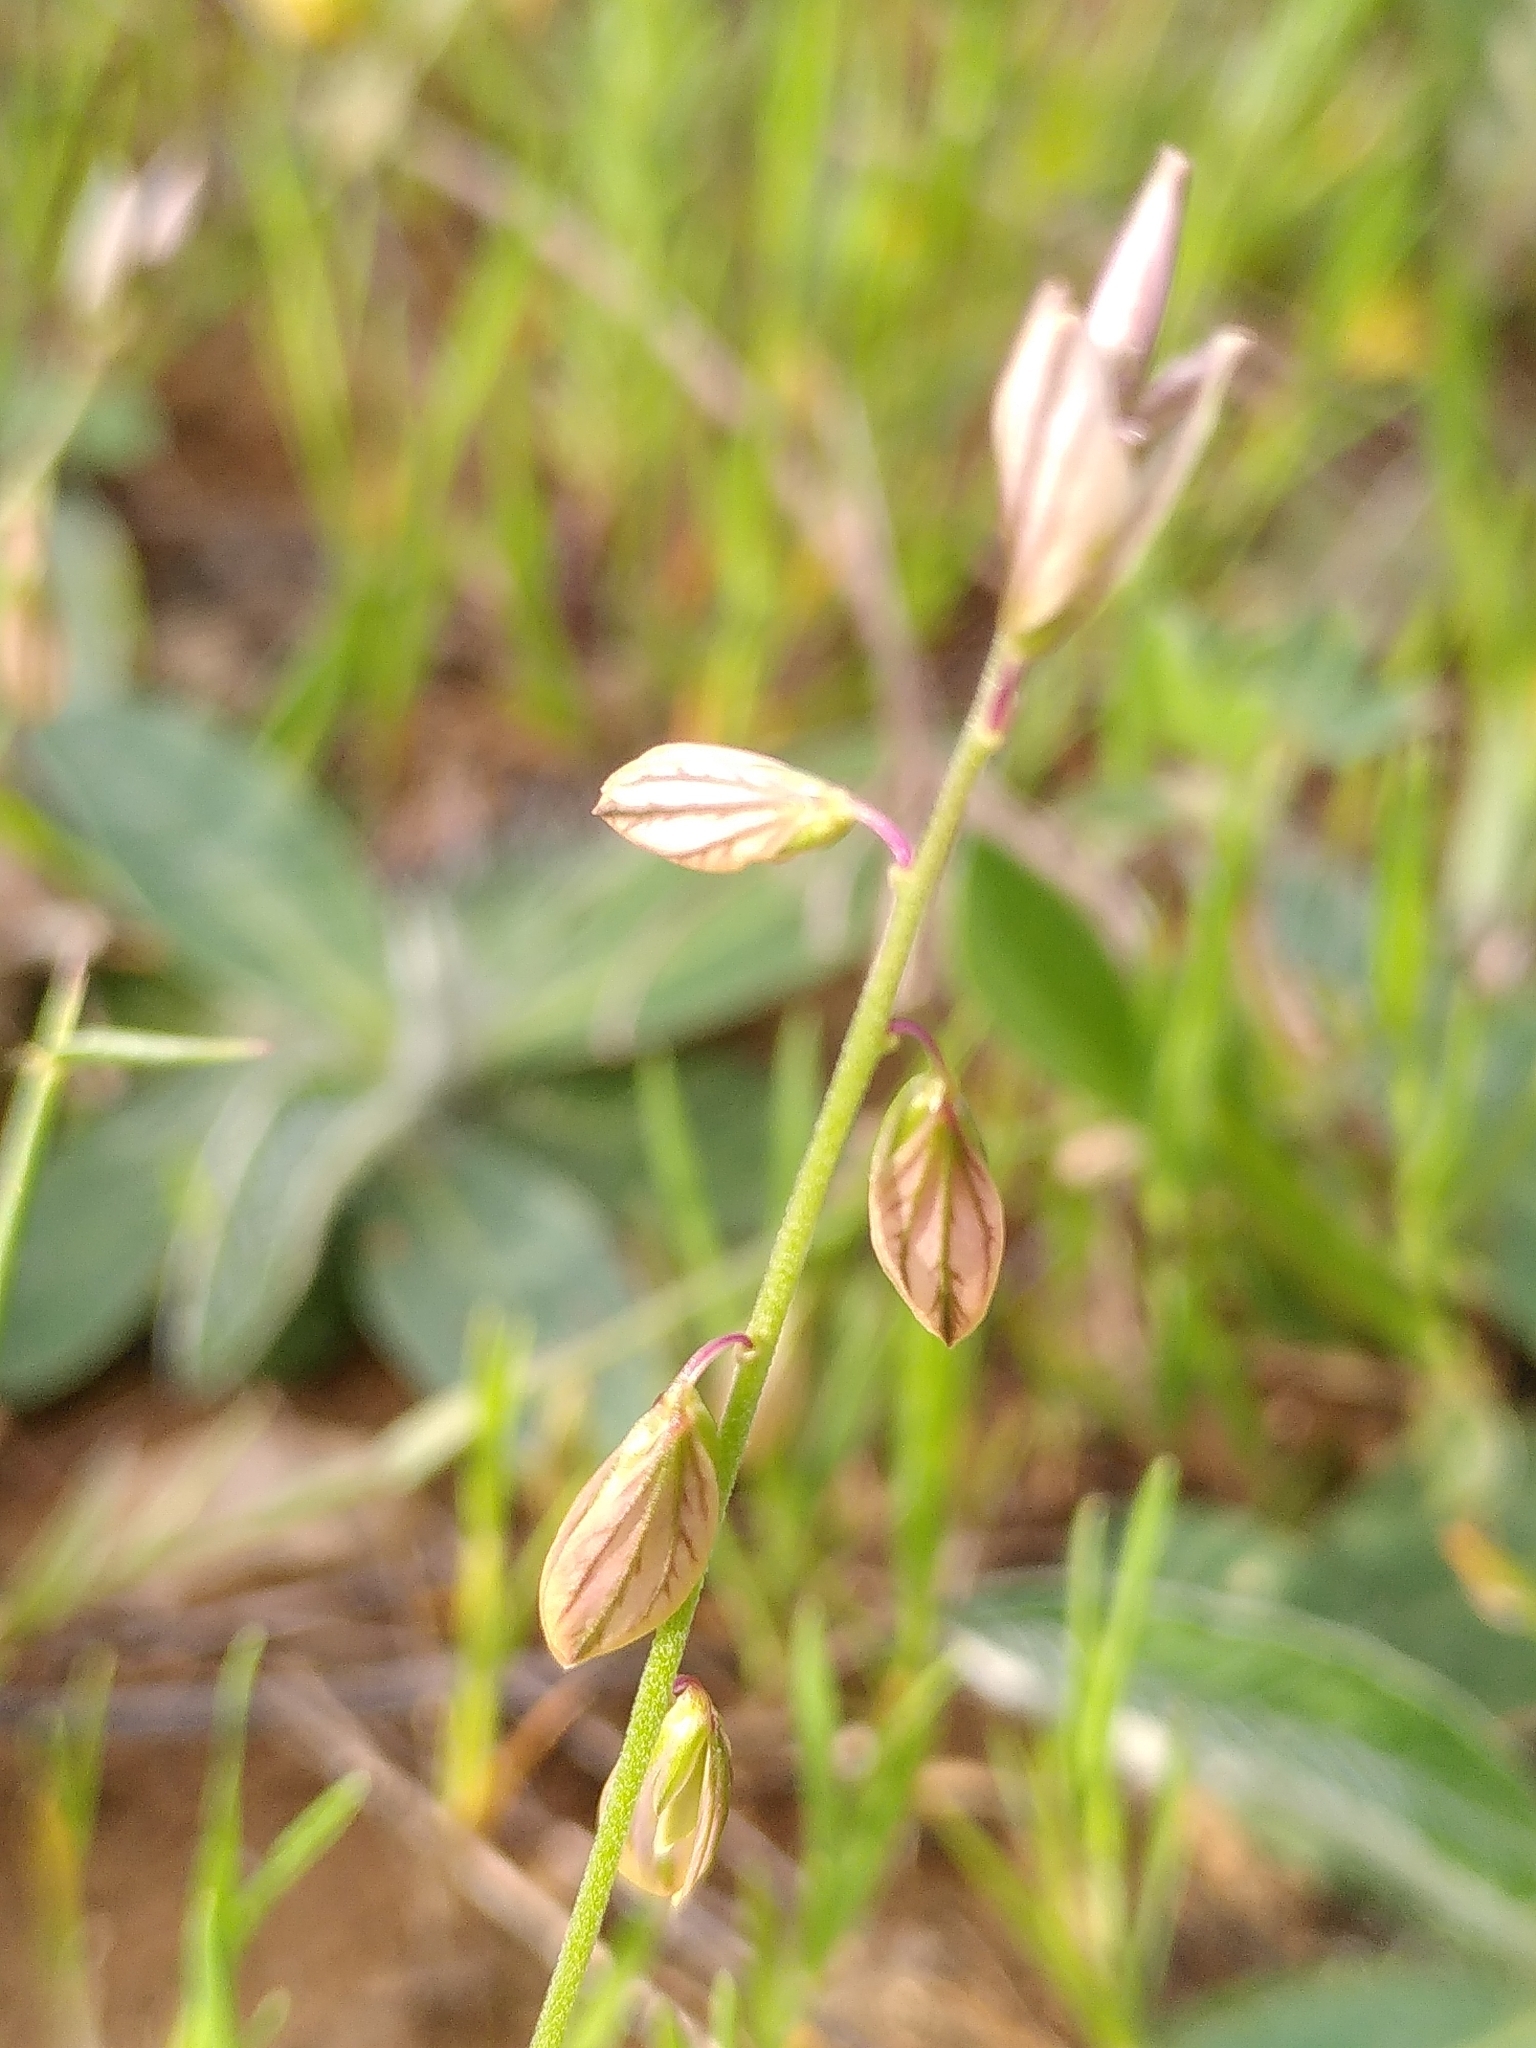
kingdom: Plantae
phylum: Tracheophyta
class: Magnoliopsida
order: Fabales
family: Polygalaceae
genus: Polygala
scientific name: Polygala monspeliaca
